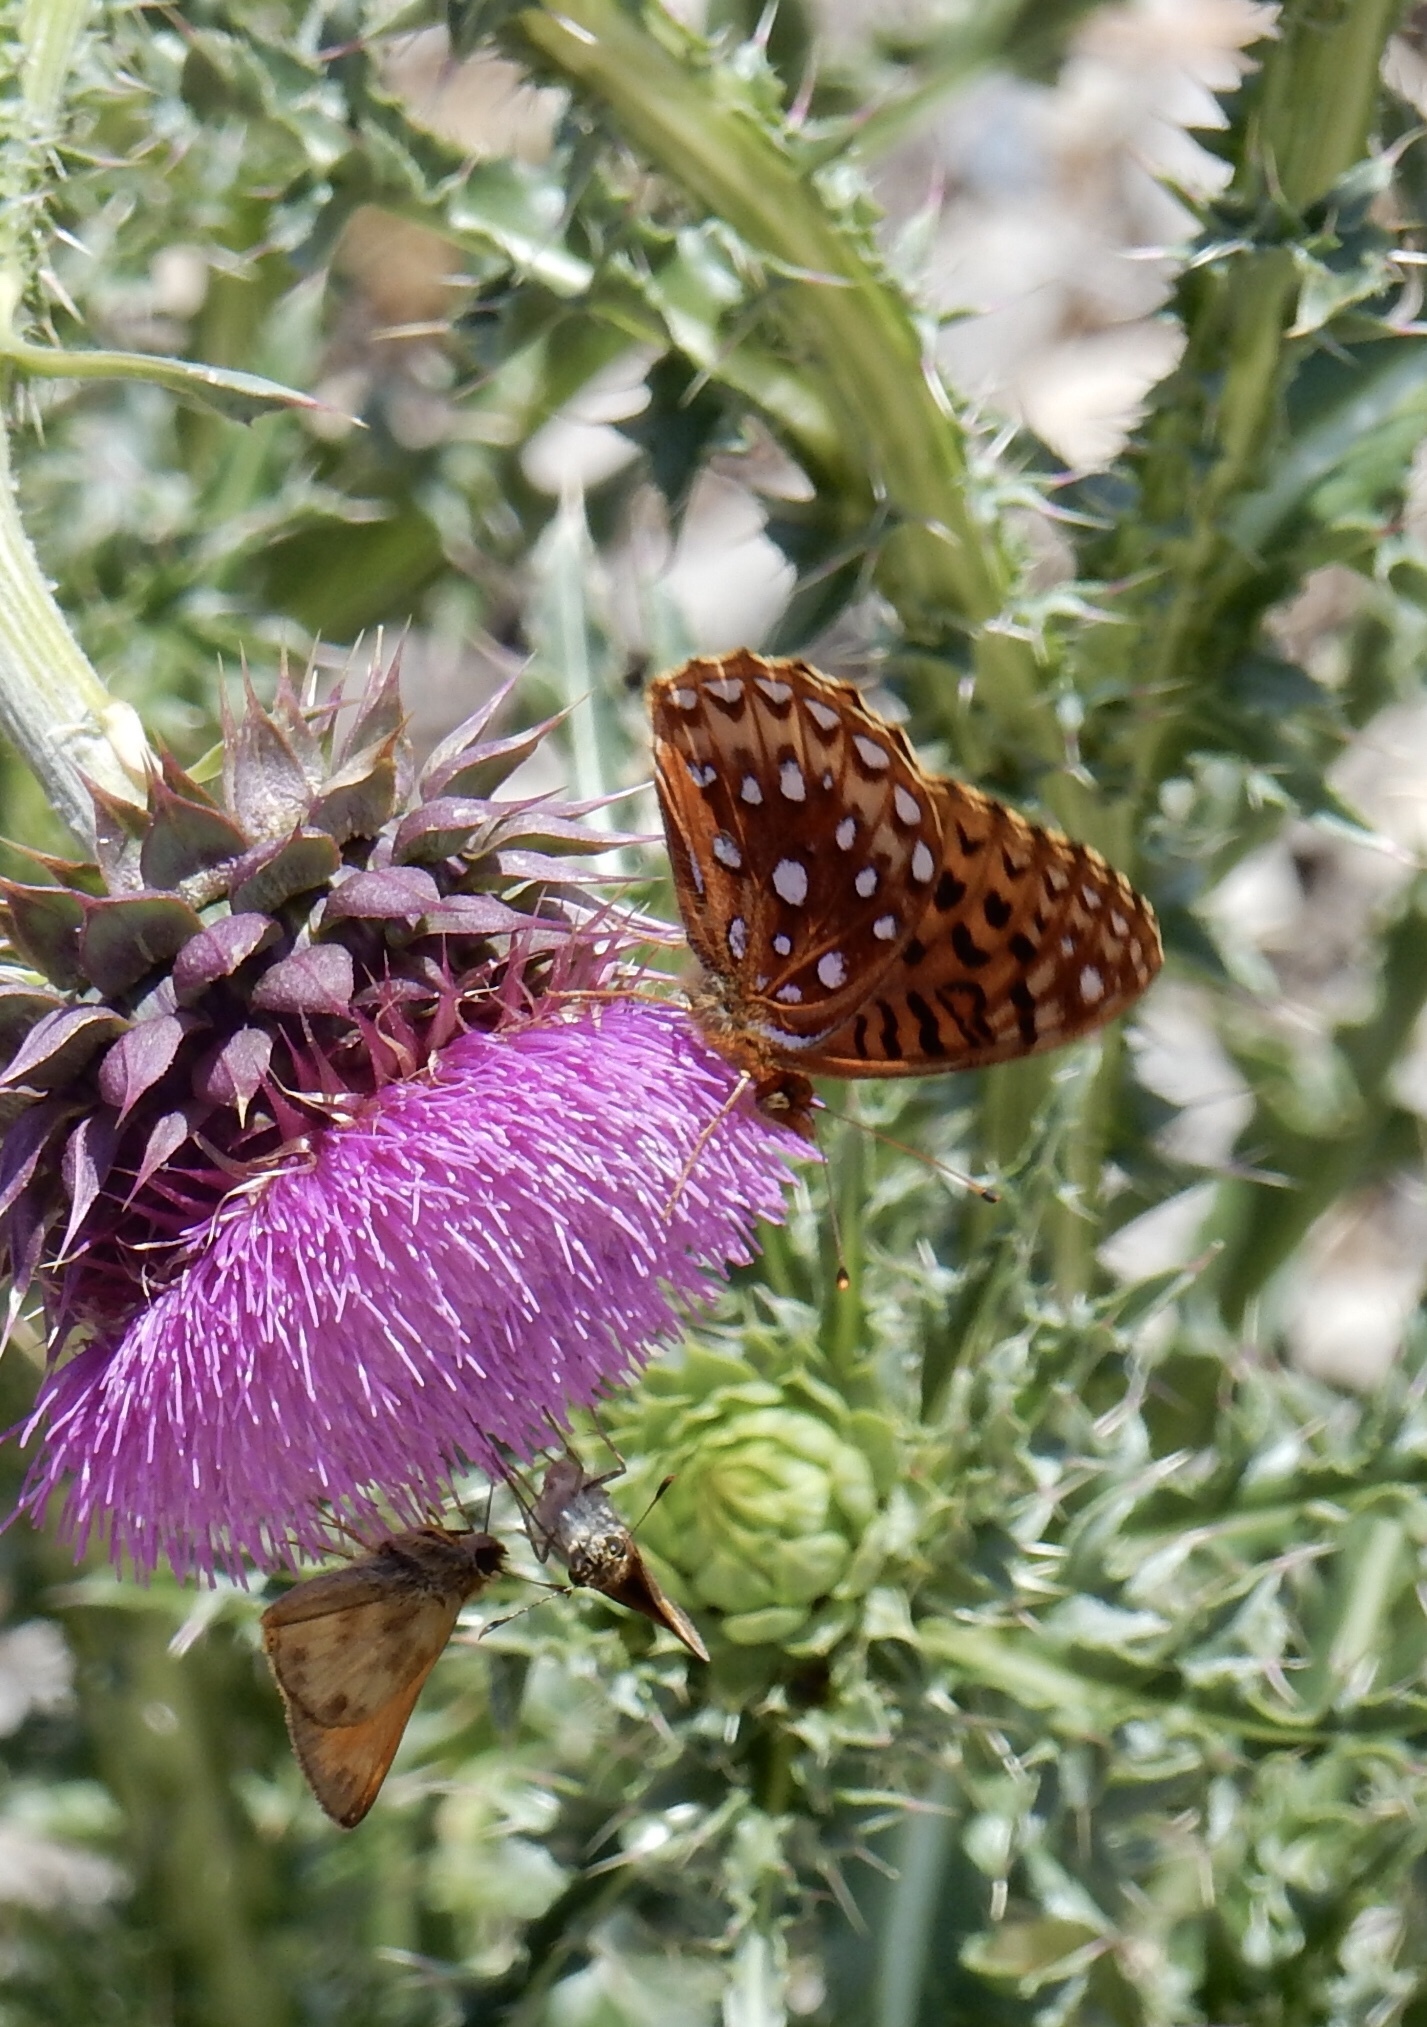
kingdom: Animalia
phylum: Arthropoda
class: Insecta
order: Lepidoptera
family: Nymphalidae
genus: Speyeria
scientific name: Speyeria atlantis
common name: Atlantis fritillary
